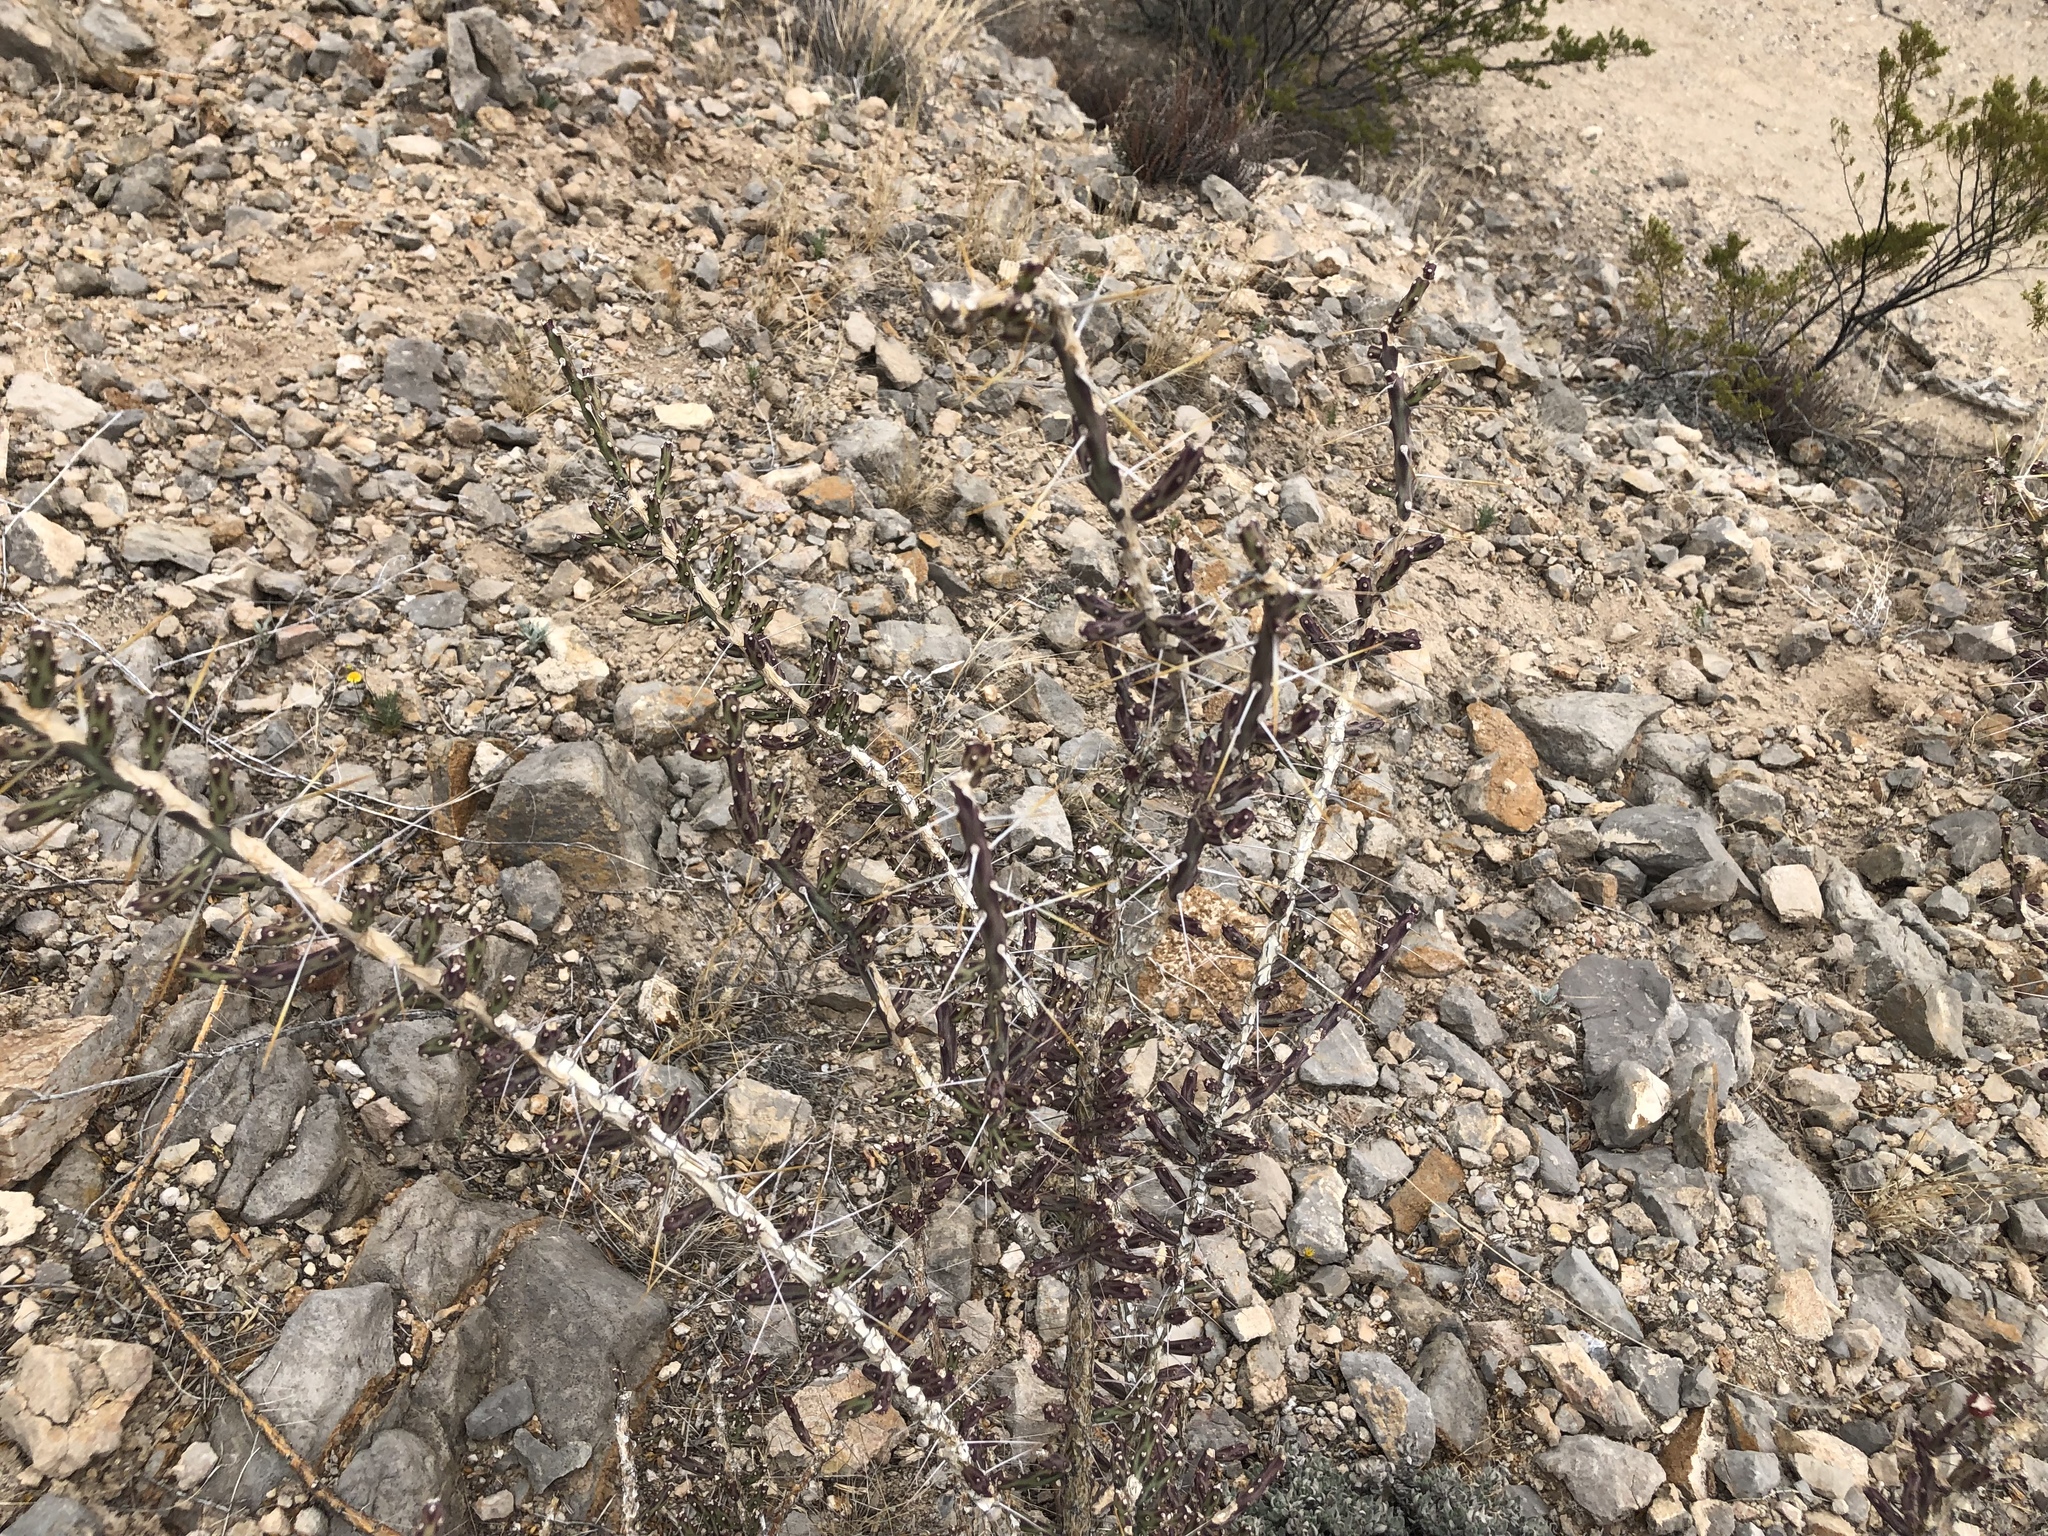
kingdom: Plantae
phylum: Tracheophyta
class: Magnoliopsida
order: Caryophyllales
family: Cactaceae
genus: Cylindropuntia
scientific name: Cylindropuntia leptocaulis
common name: Christmas cactus
